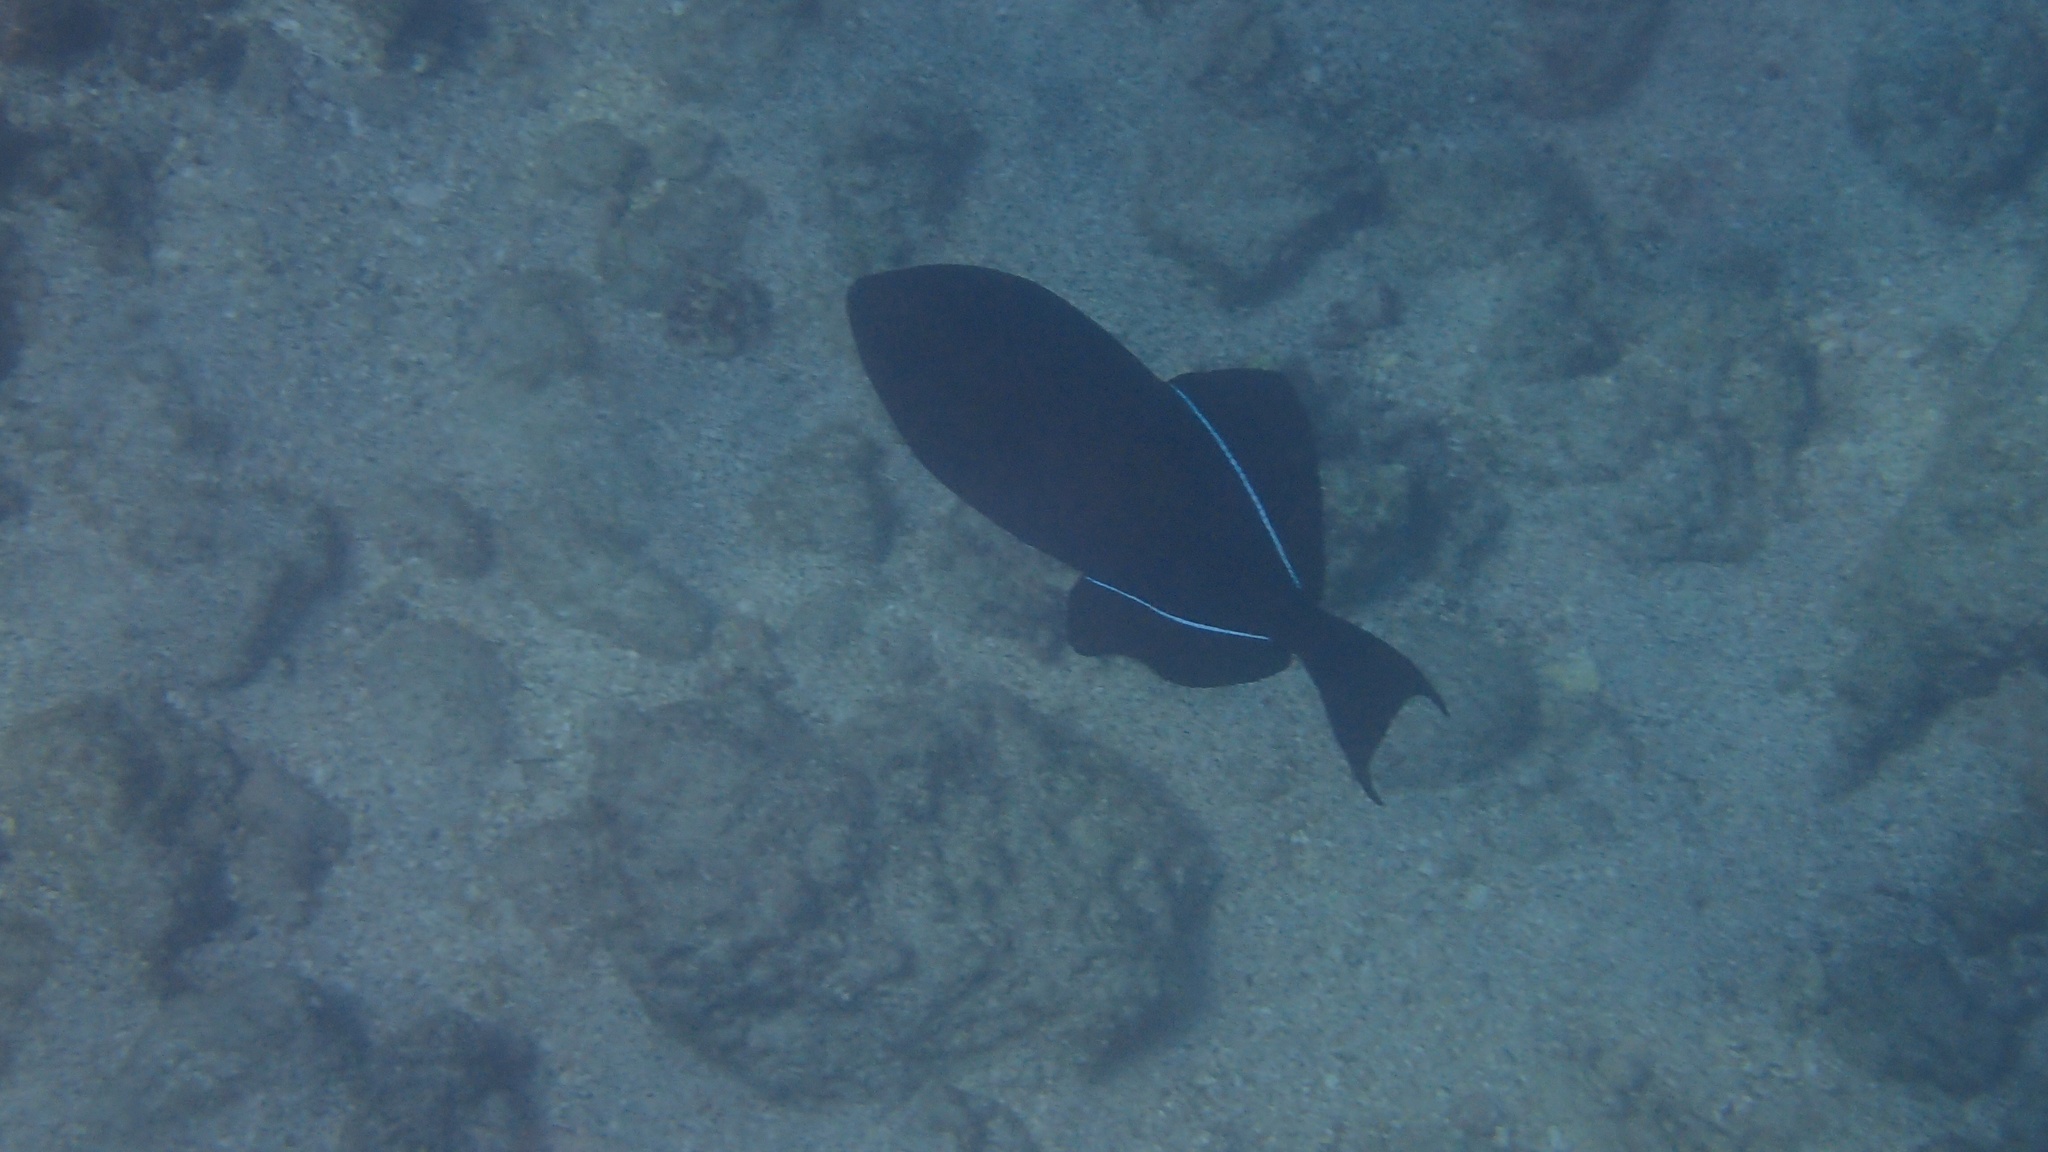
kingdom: Animalia
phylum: Chordata
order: Tetraodontiformes
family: Balistidae
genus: Melichthys
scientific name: Melichthys niger
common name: Black durgon
